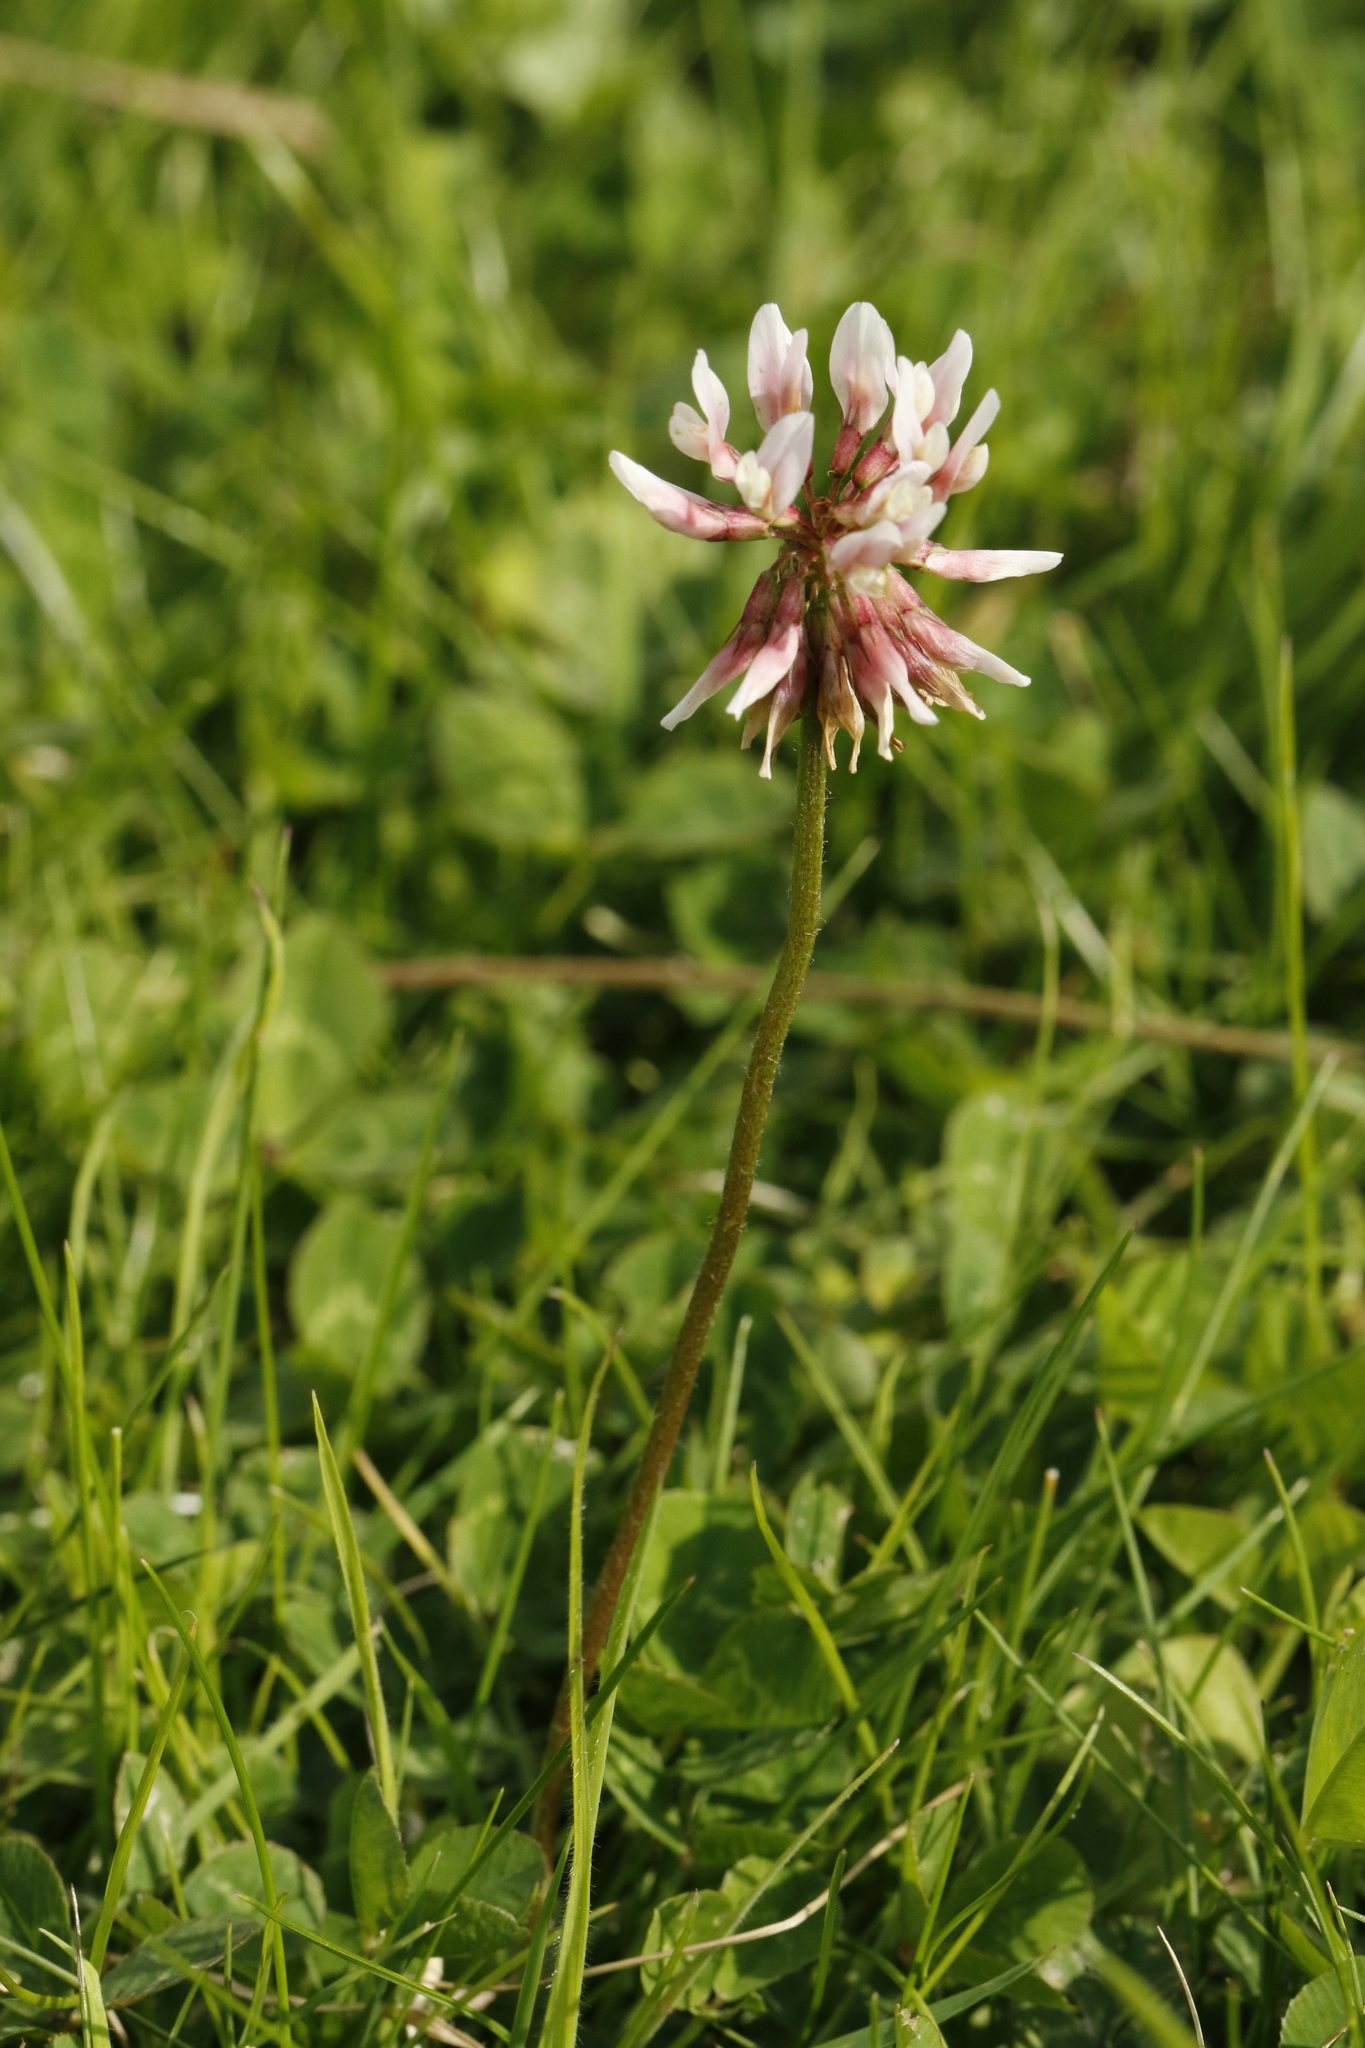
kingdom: Plantae
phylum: Tracheophyta
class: Magnoliopsida
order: Fabales
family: Fabaceae
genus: Trifolium
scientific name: Trifolium repens
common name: White clover
